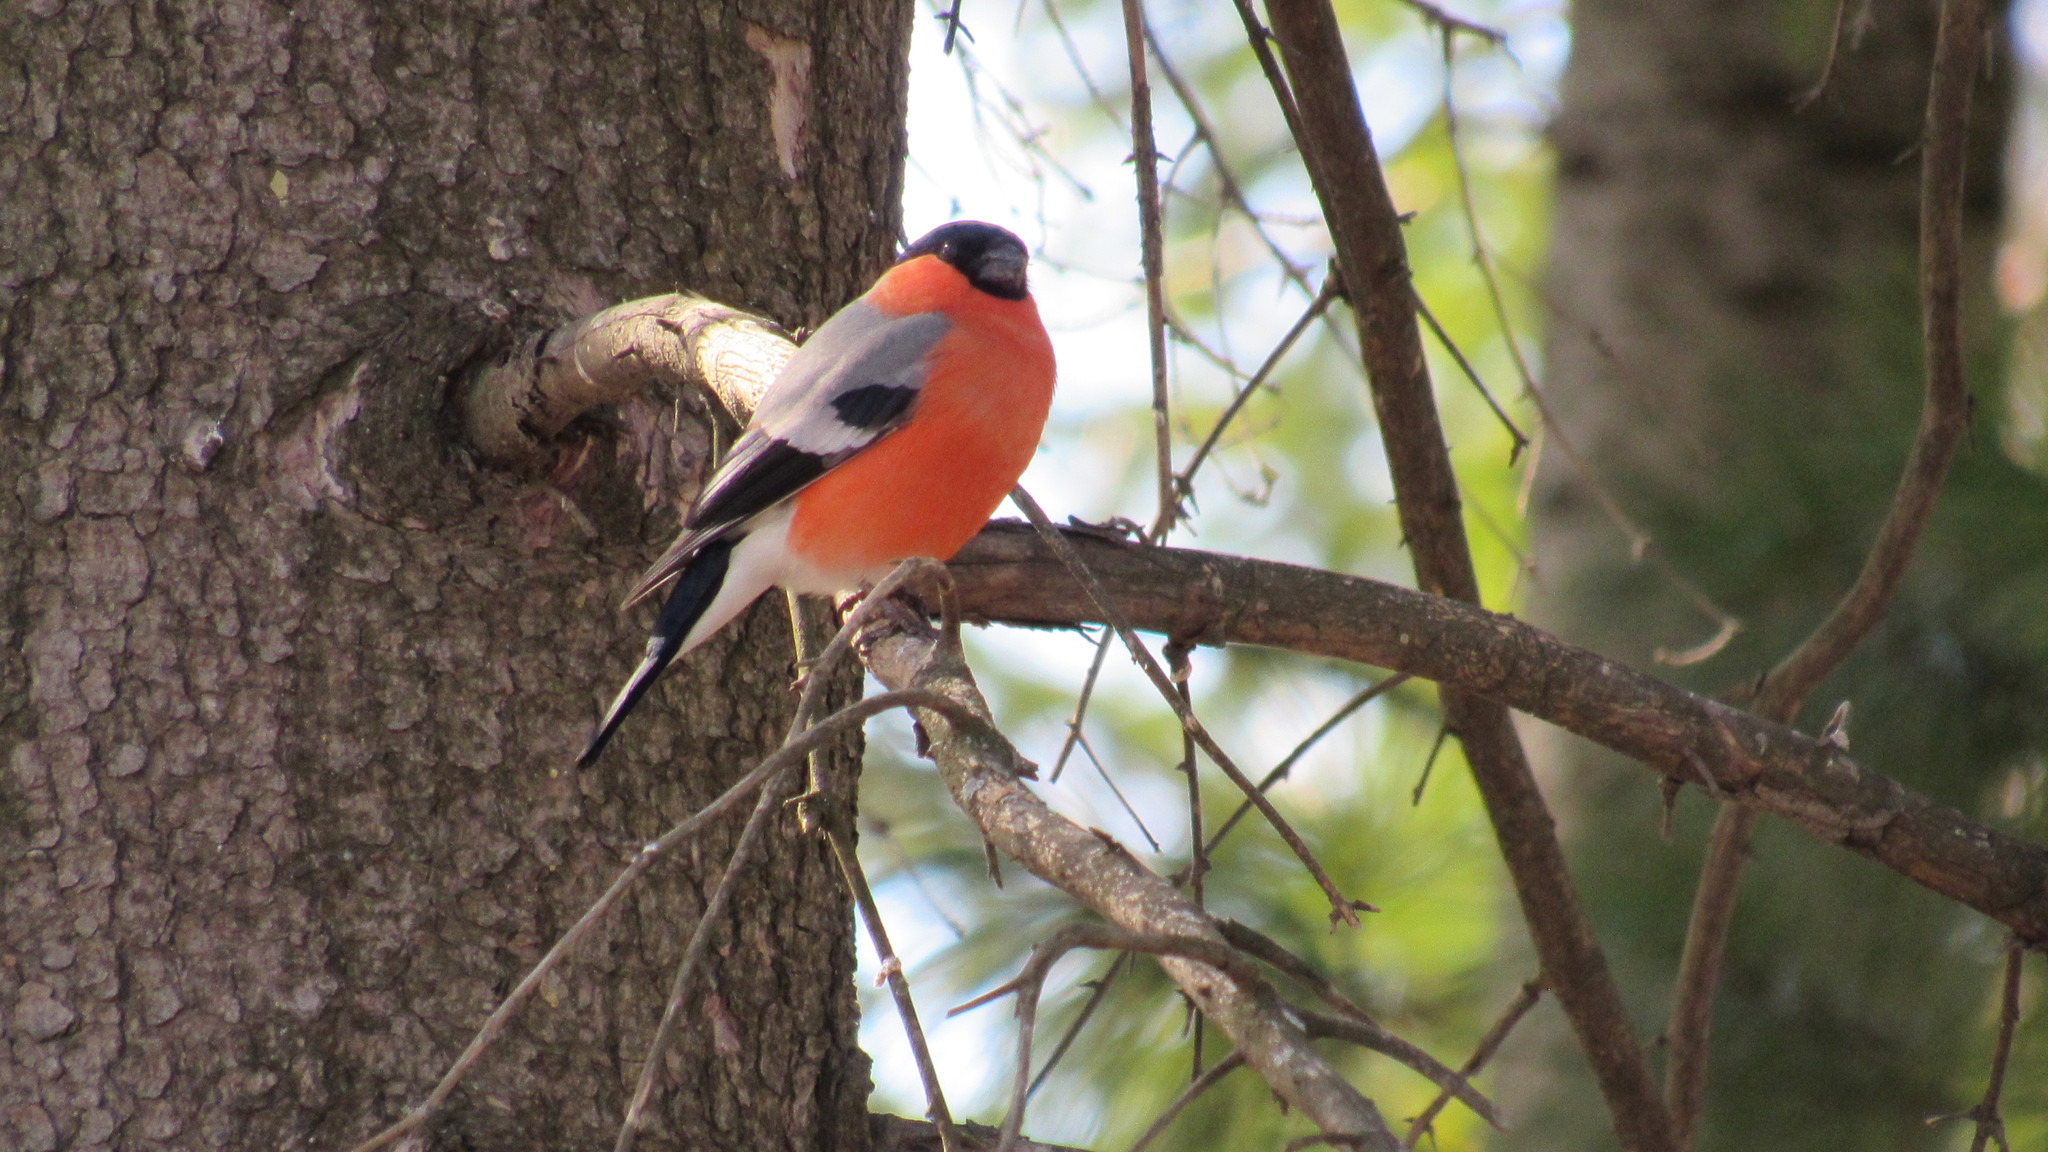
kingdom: Animalia
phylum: Chordata
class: Aves
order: Passeriformes
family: Fringillidae
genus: Pyrrhula
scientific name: Pyrrhula pyrrhula
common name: Eurasian bullfinch
